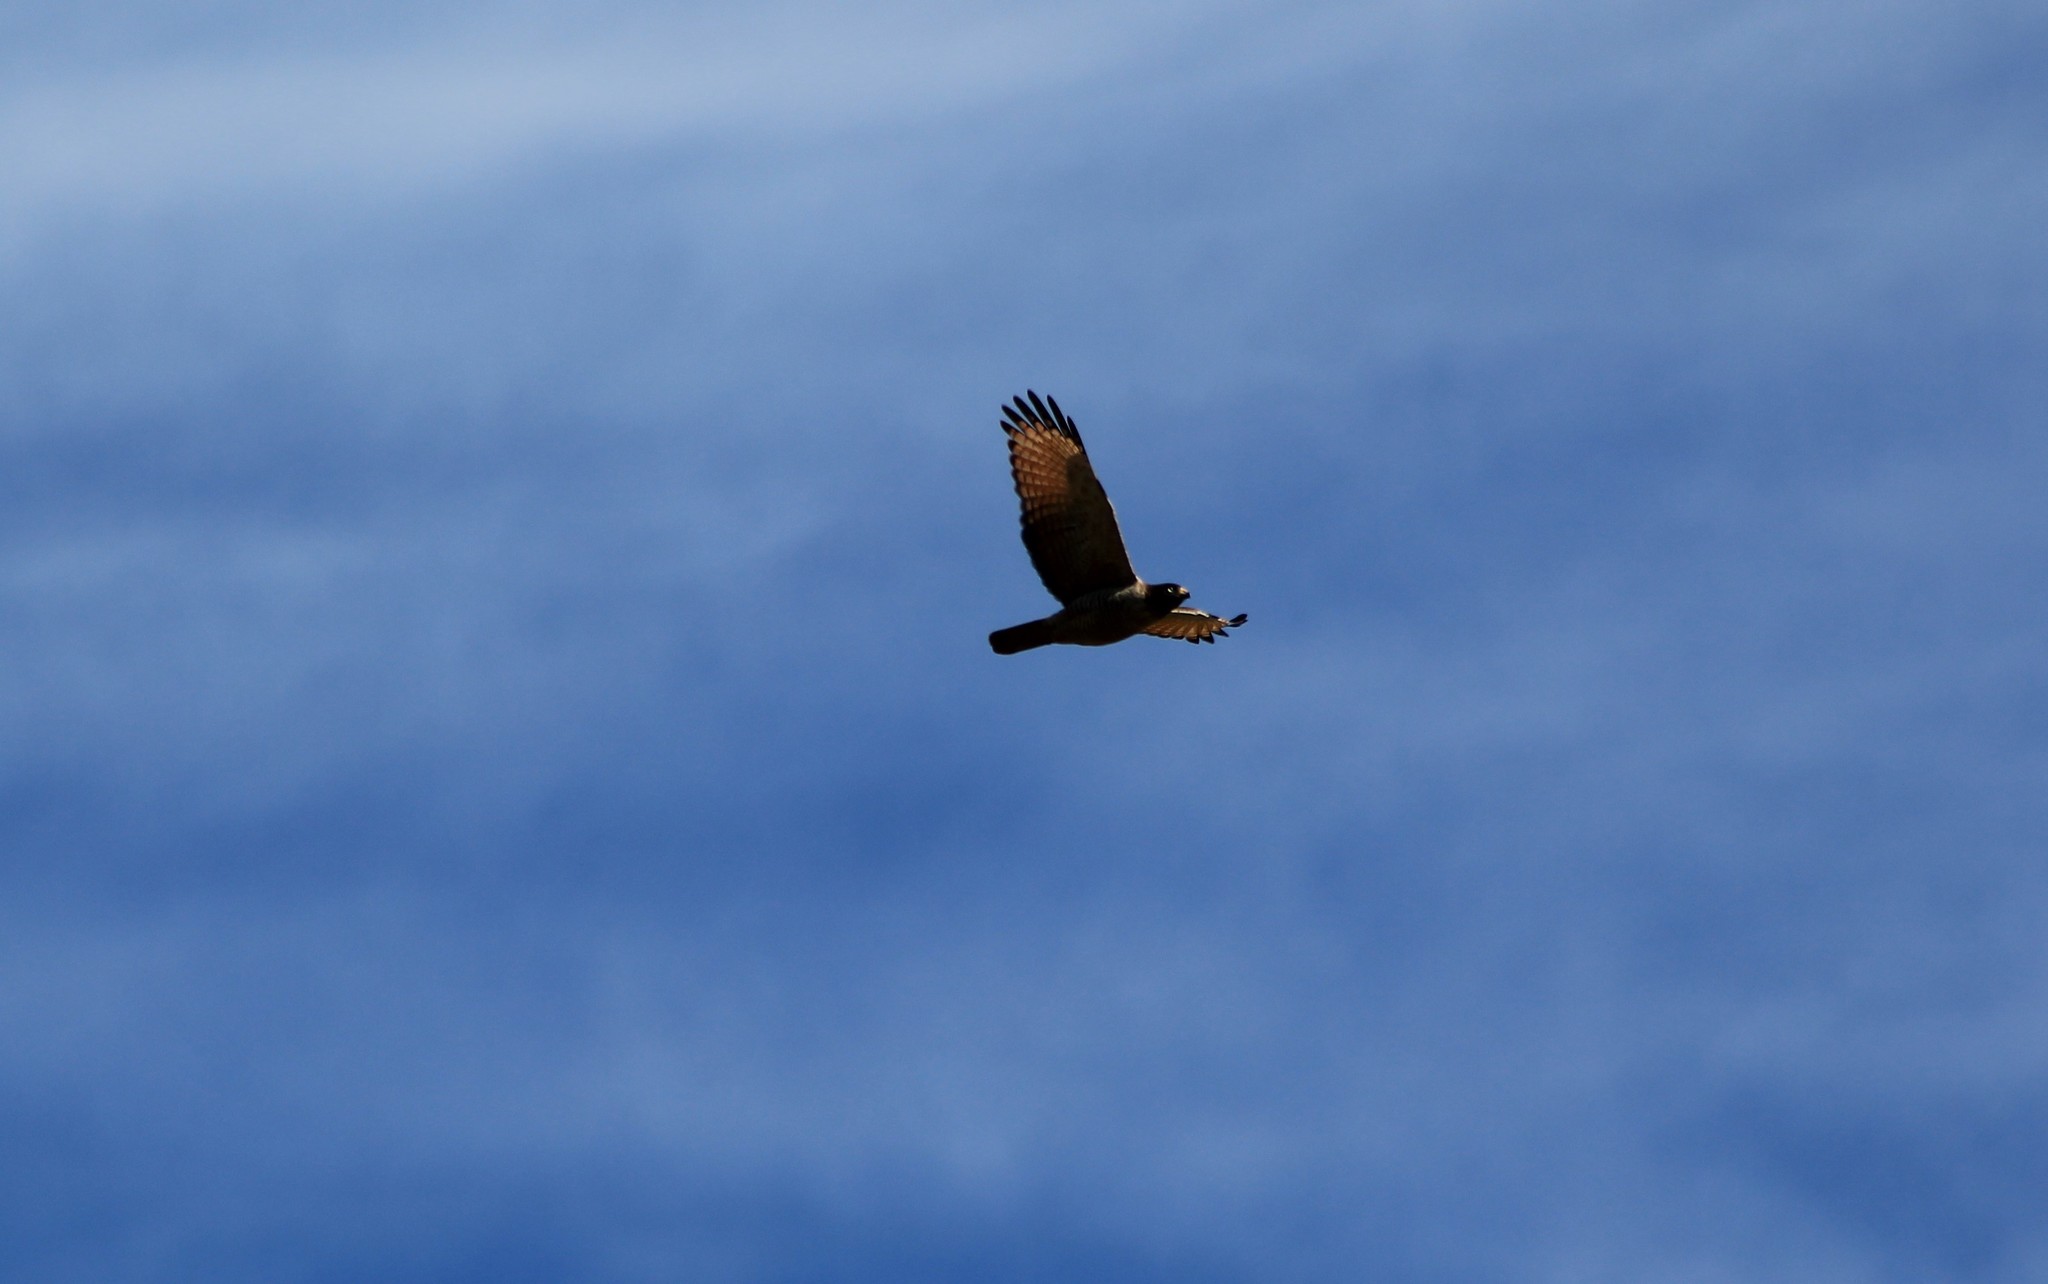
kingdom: Animalia
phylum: Chordata
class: Aves
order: Accipitriformes
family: Accipitridae
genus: Rupornis
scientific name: Rupornis magnirostris
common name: Roadside hawk
